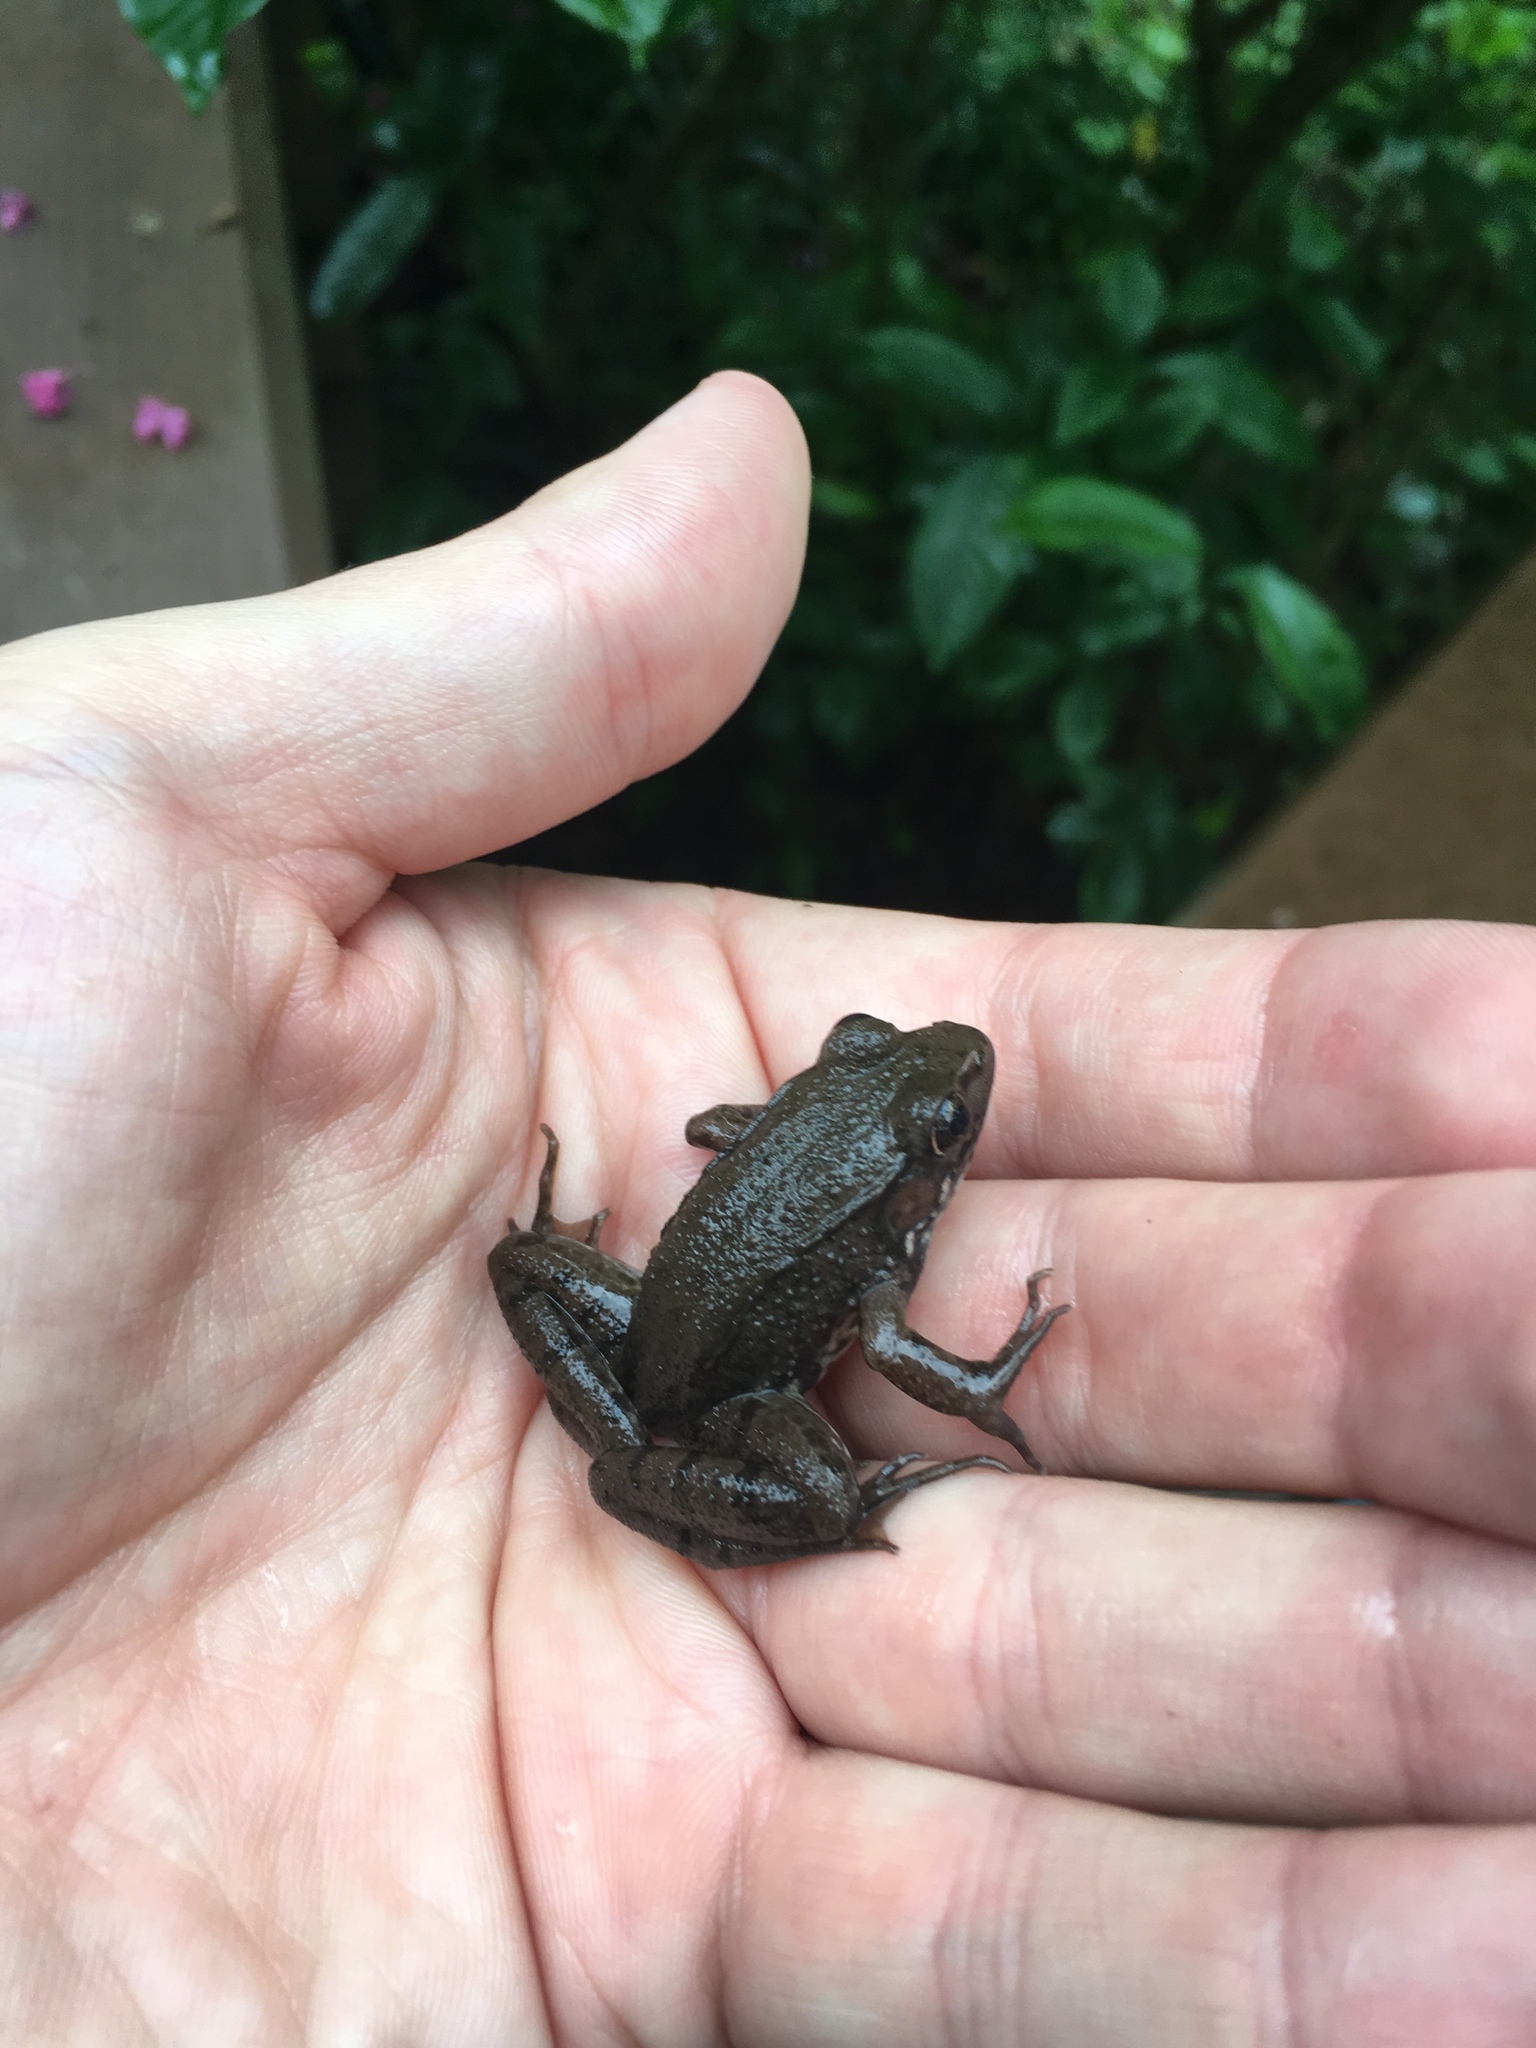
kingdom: Animalia
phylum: Chordata
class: Amphibia
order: Anura
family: Ranidae
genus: Lithobates
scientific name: Lithobates clamitans
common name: Green frog
